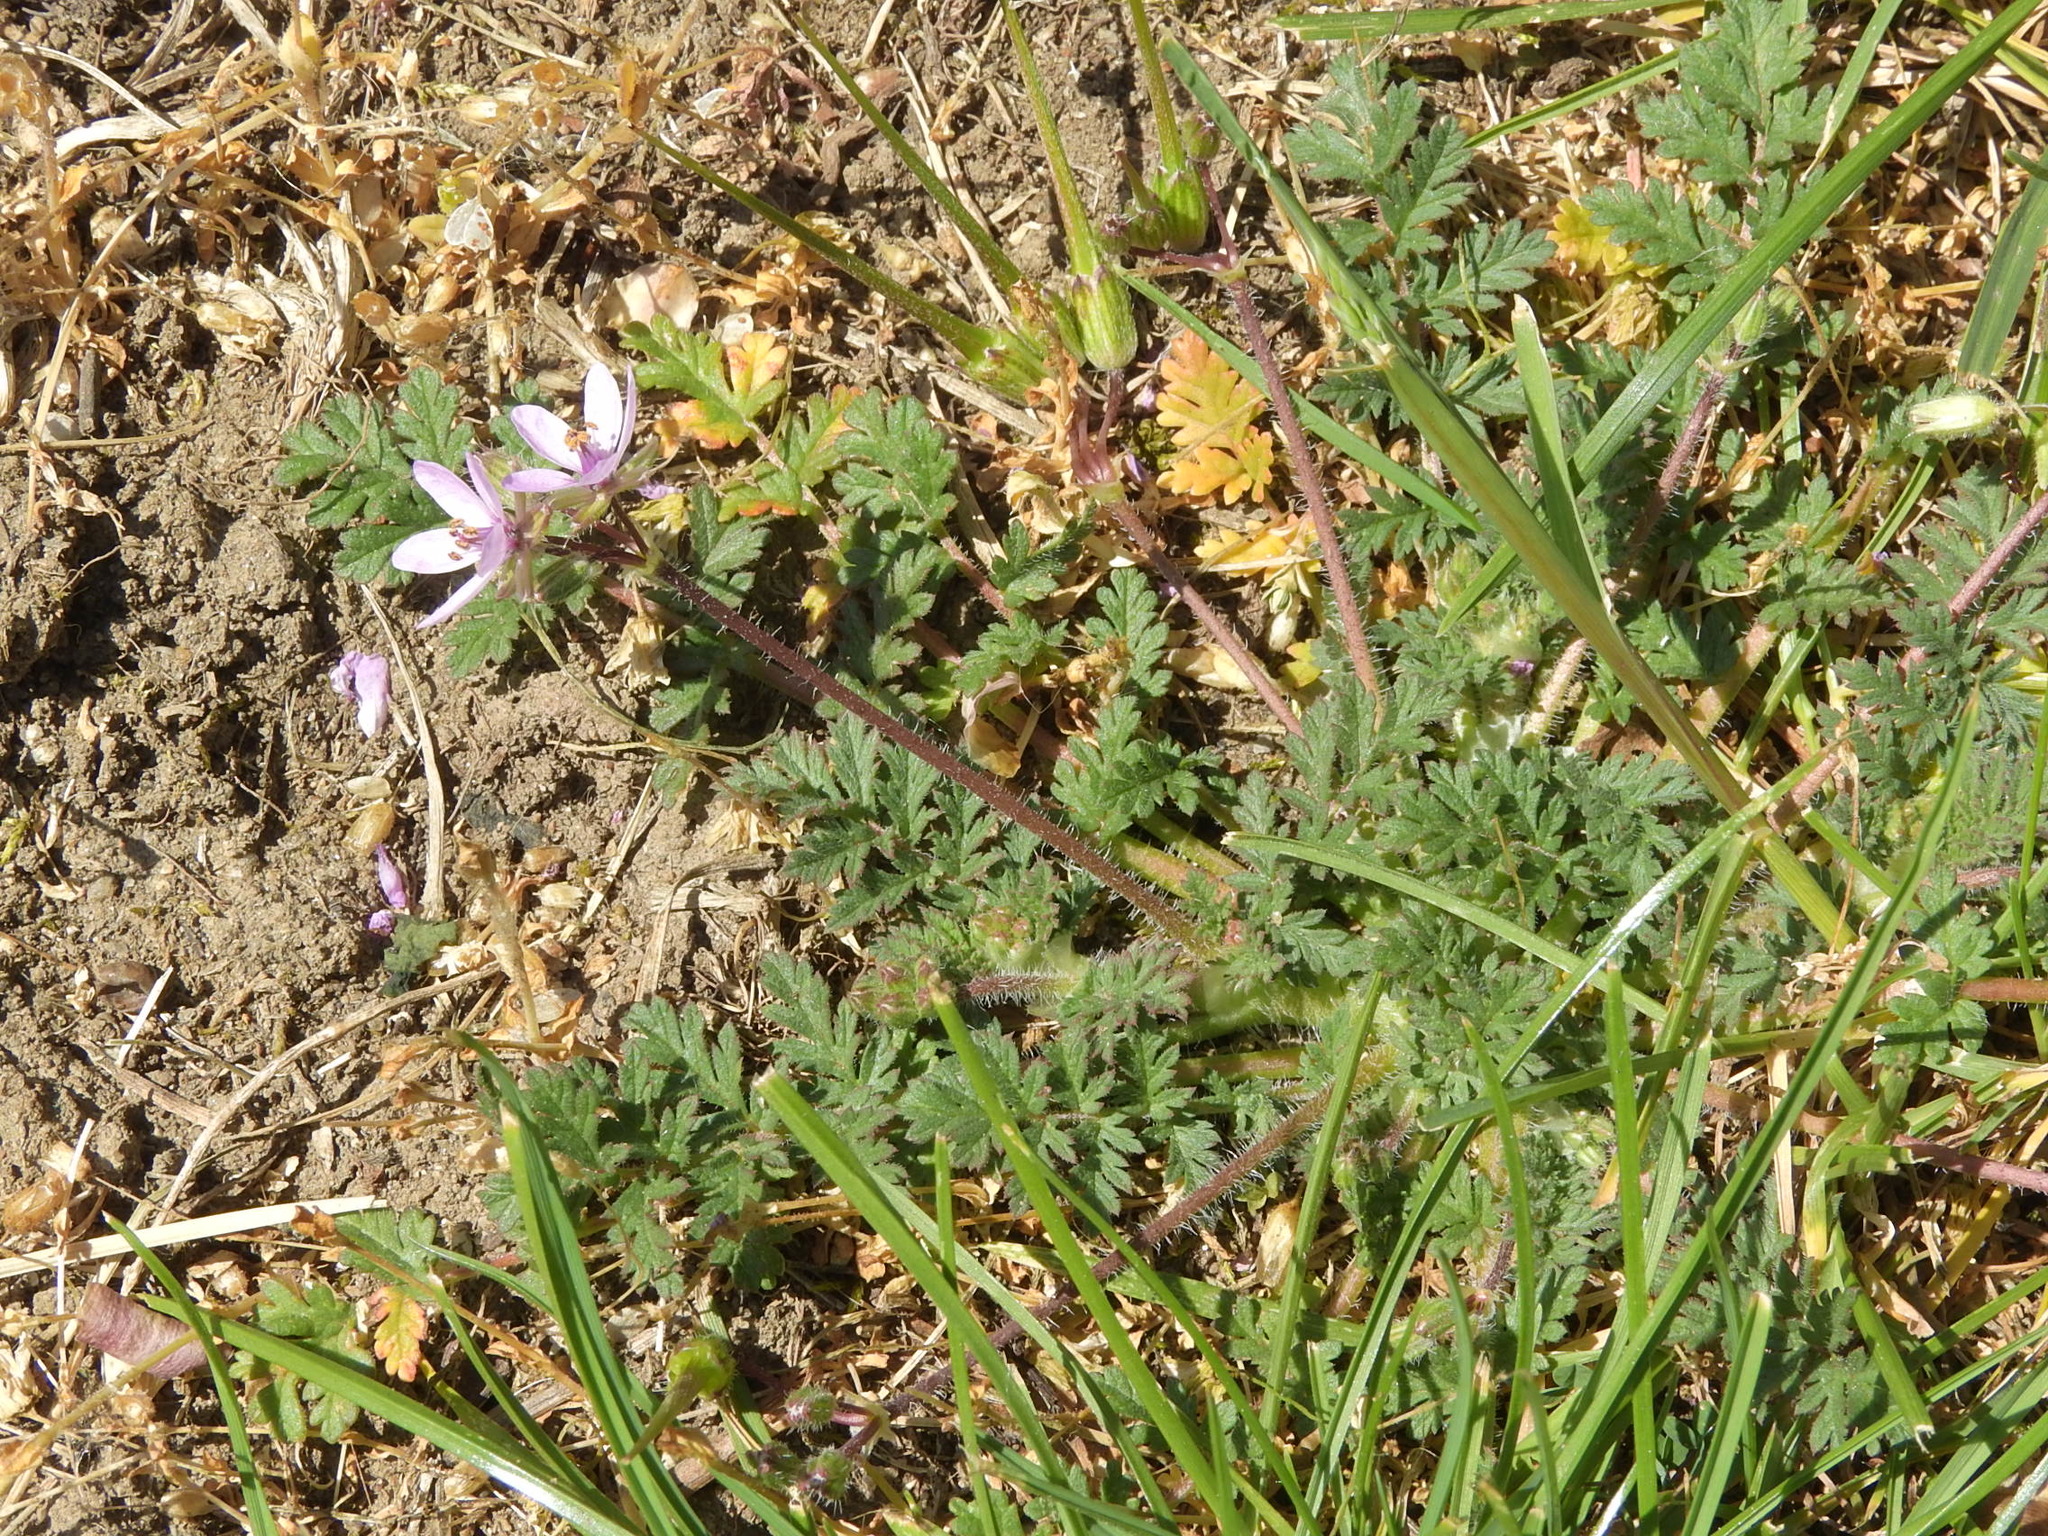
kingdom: Plantae
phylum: Tracheophyta
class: Magnoliopsida
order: Geraniales
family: Geraniaceae
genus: Erodium
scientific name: Erodium cicutarium
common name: Common stork's-bill
